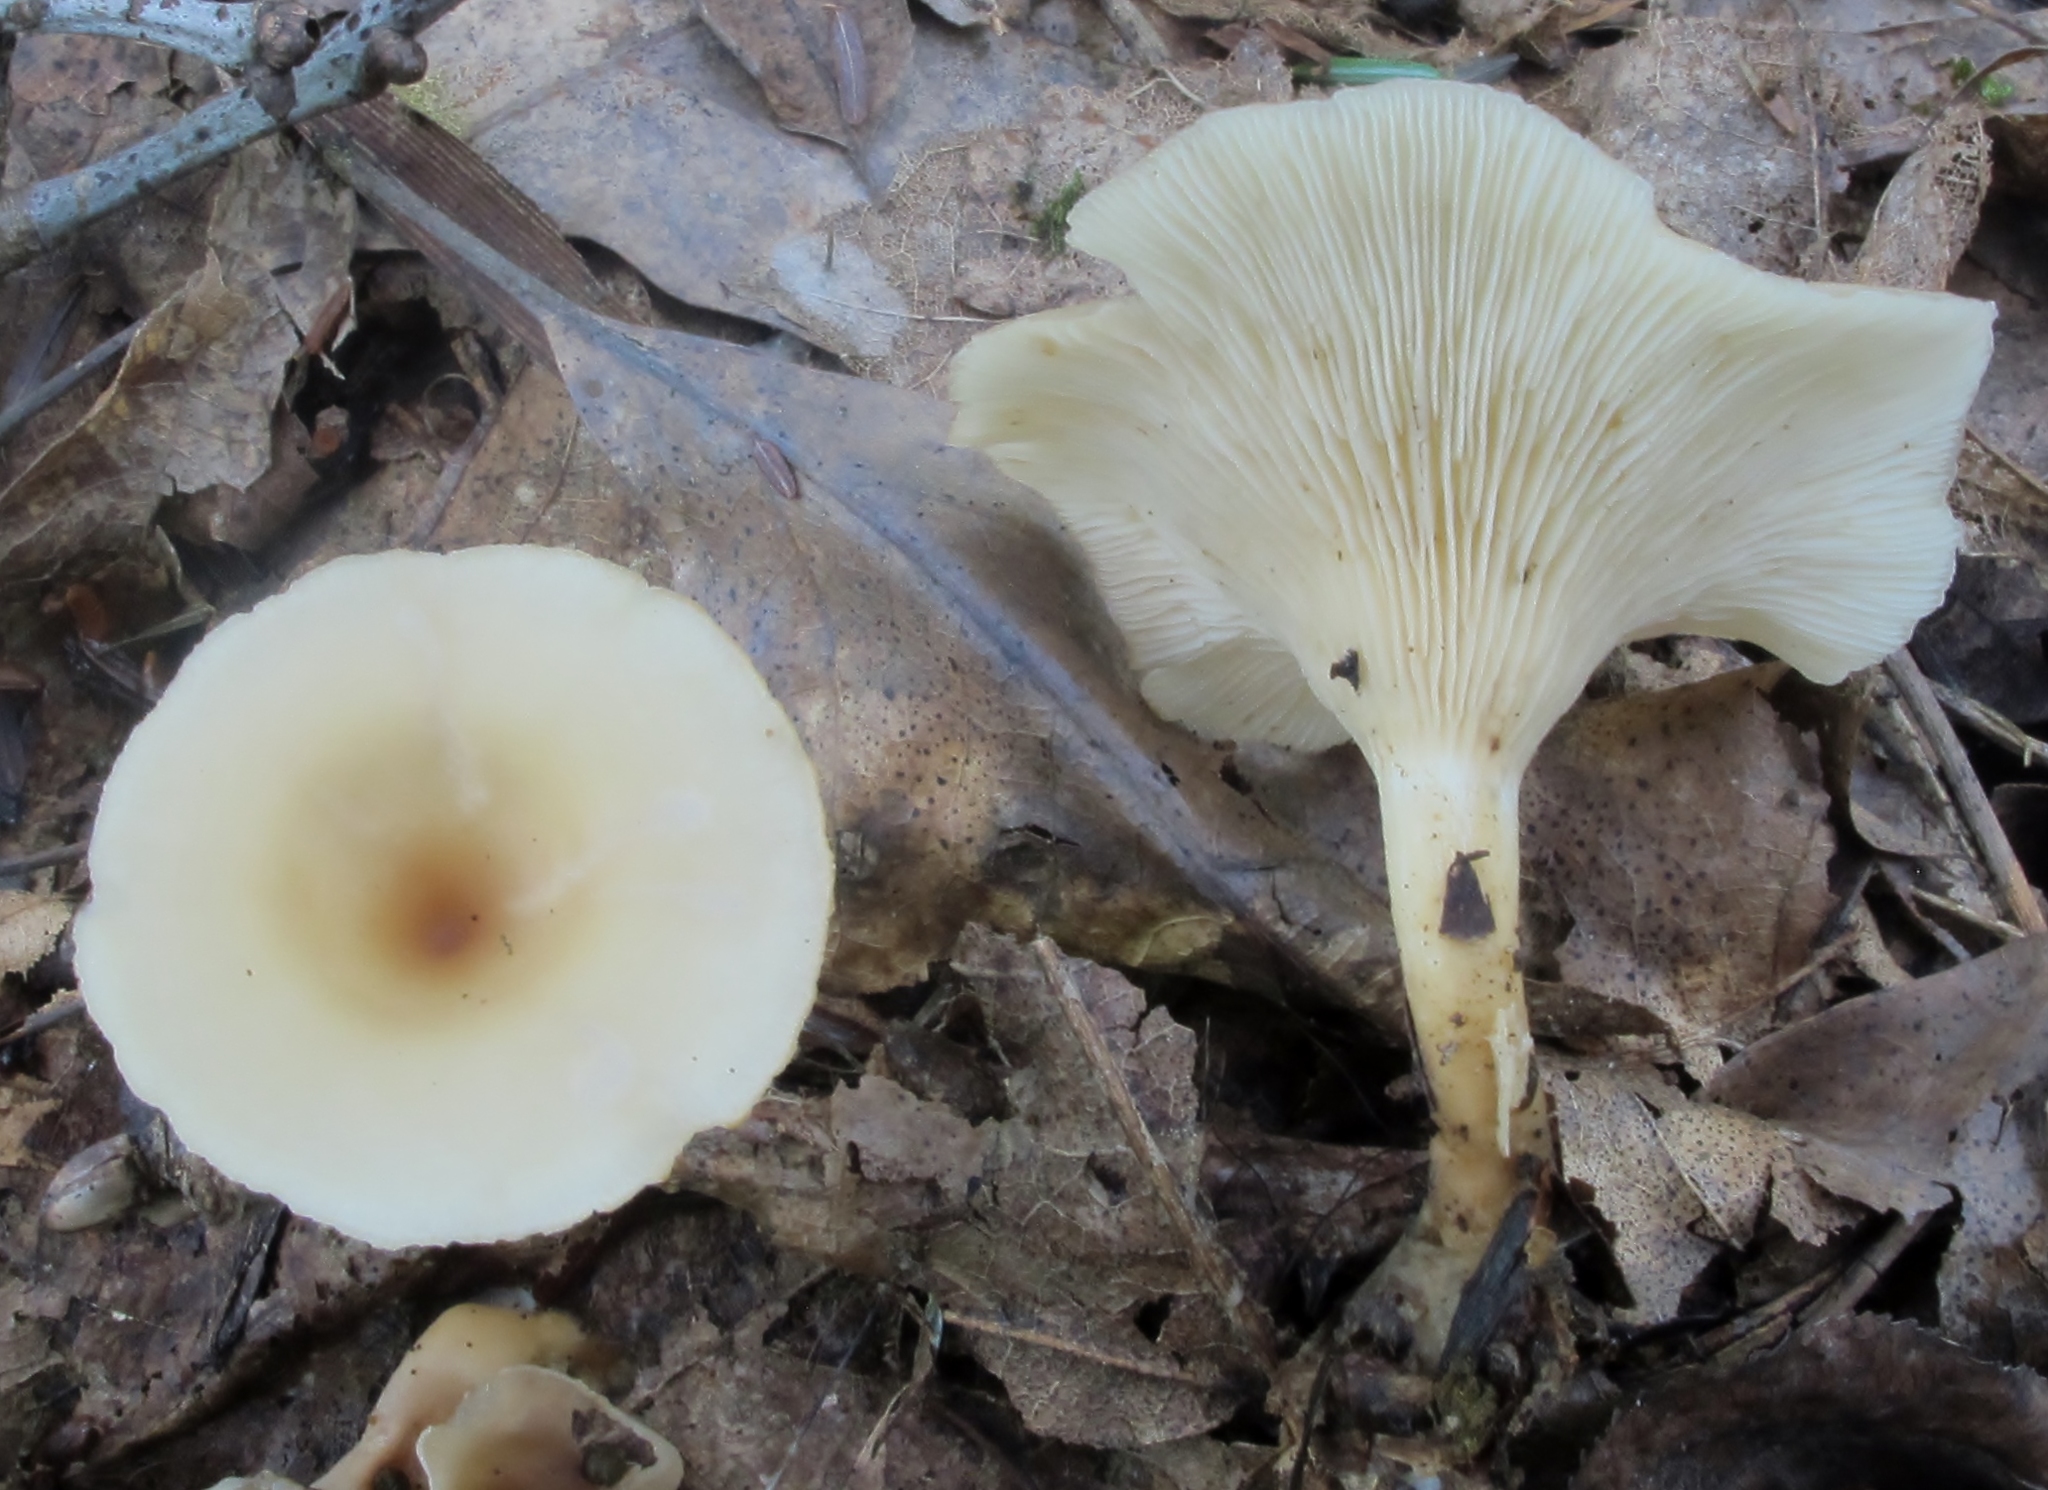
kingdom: Fungi
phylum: Basidiomycota
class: Agaricomycetes
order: Agaricales
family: Tricholomataceae
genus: Singerocybe
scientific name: Singerocybe adirondackensis
